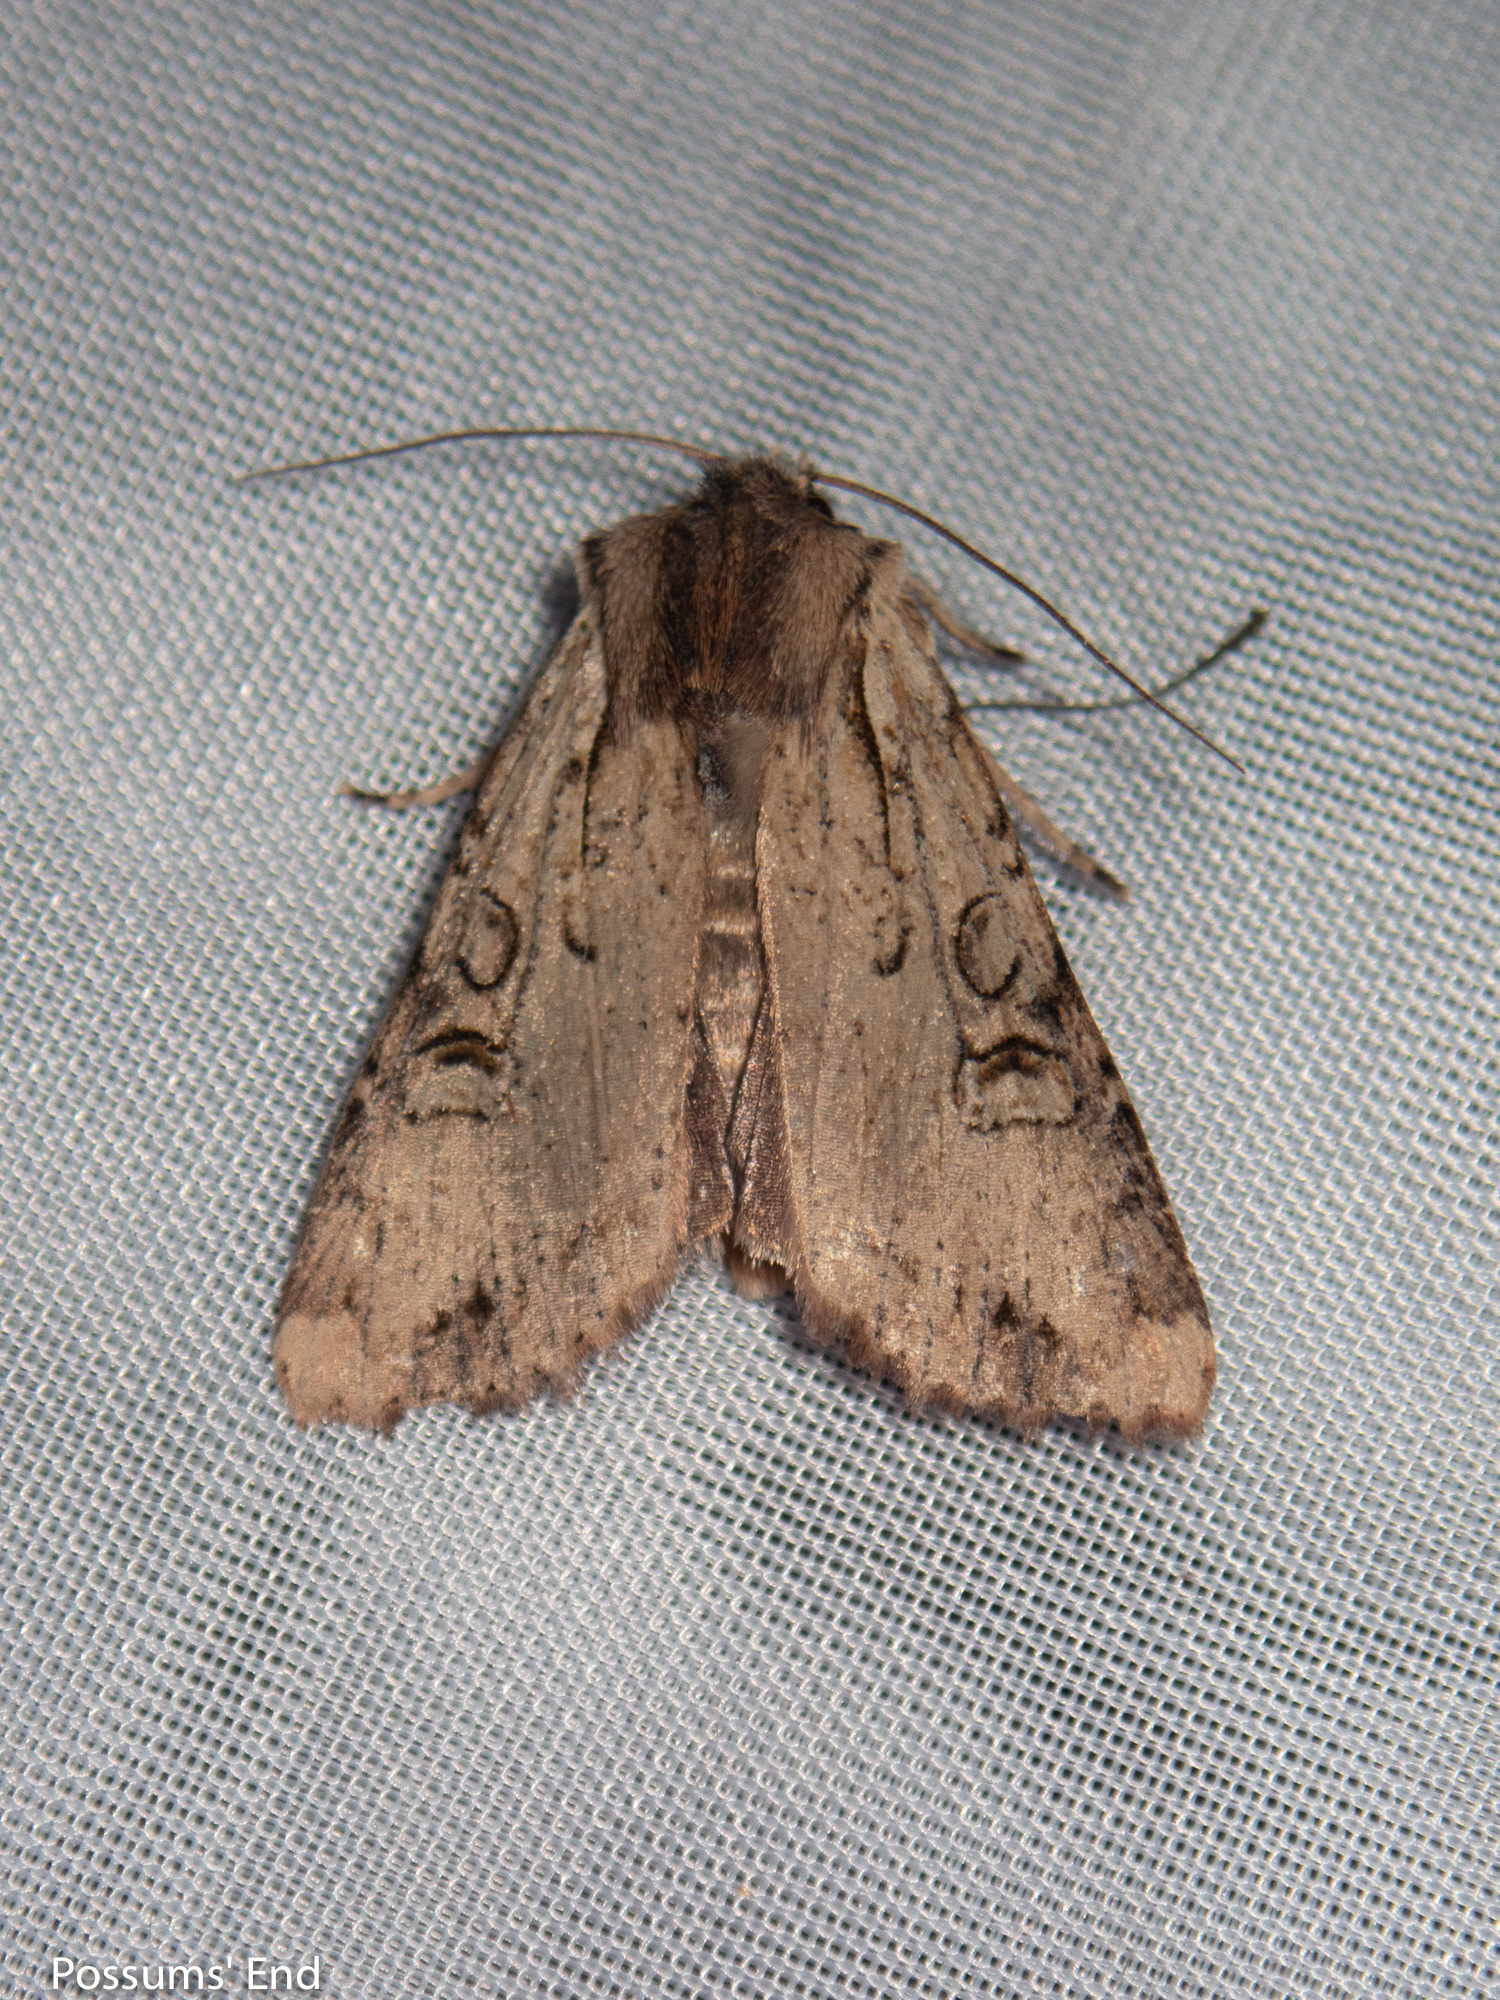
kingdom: Animalia
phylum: Arthropoda
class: Insecta
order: Lepidoptera
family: Noctuidae
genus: Ichneutica
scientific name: Ichneutica omoplaca
